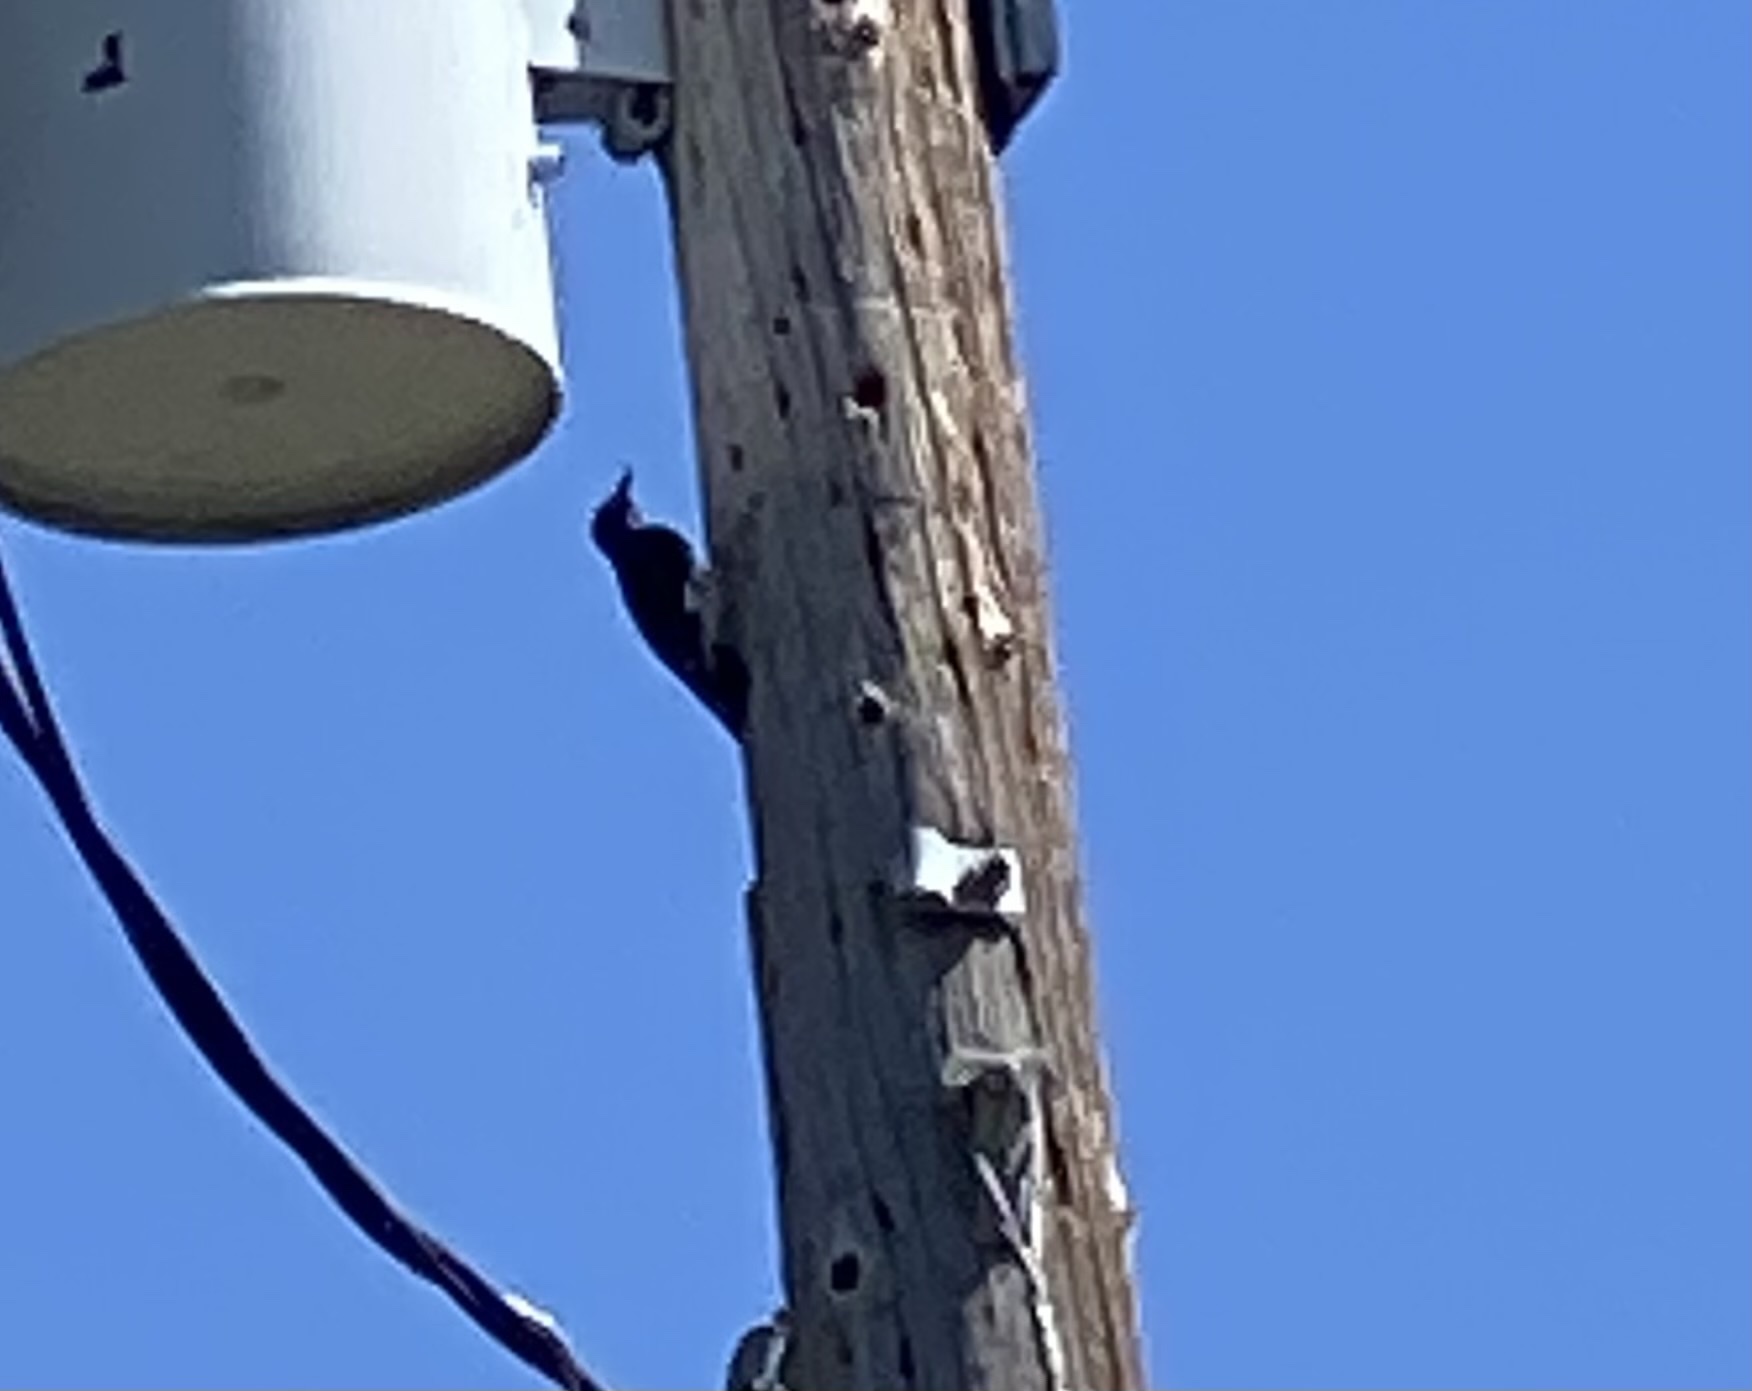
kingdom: Animalia
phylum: Chordata
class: Aves
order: Piciformes
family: Picidae
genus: Melanerpes
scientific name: Melanerpes formicivorus
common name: Acorn woodpecker
